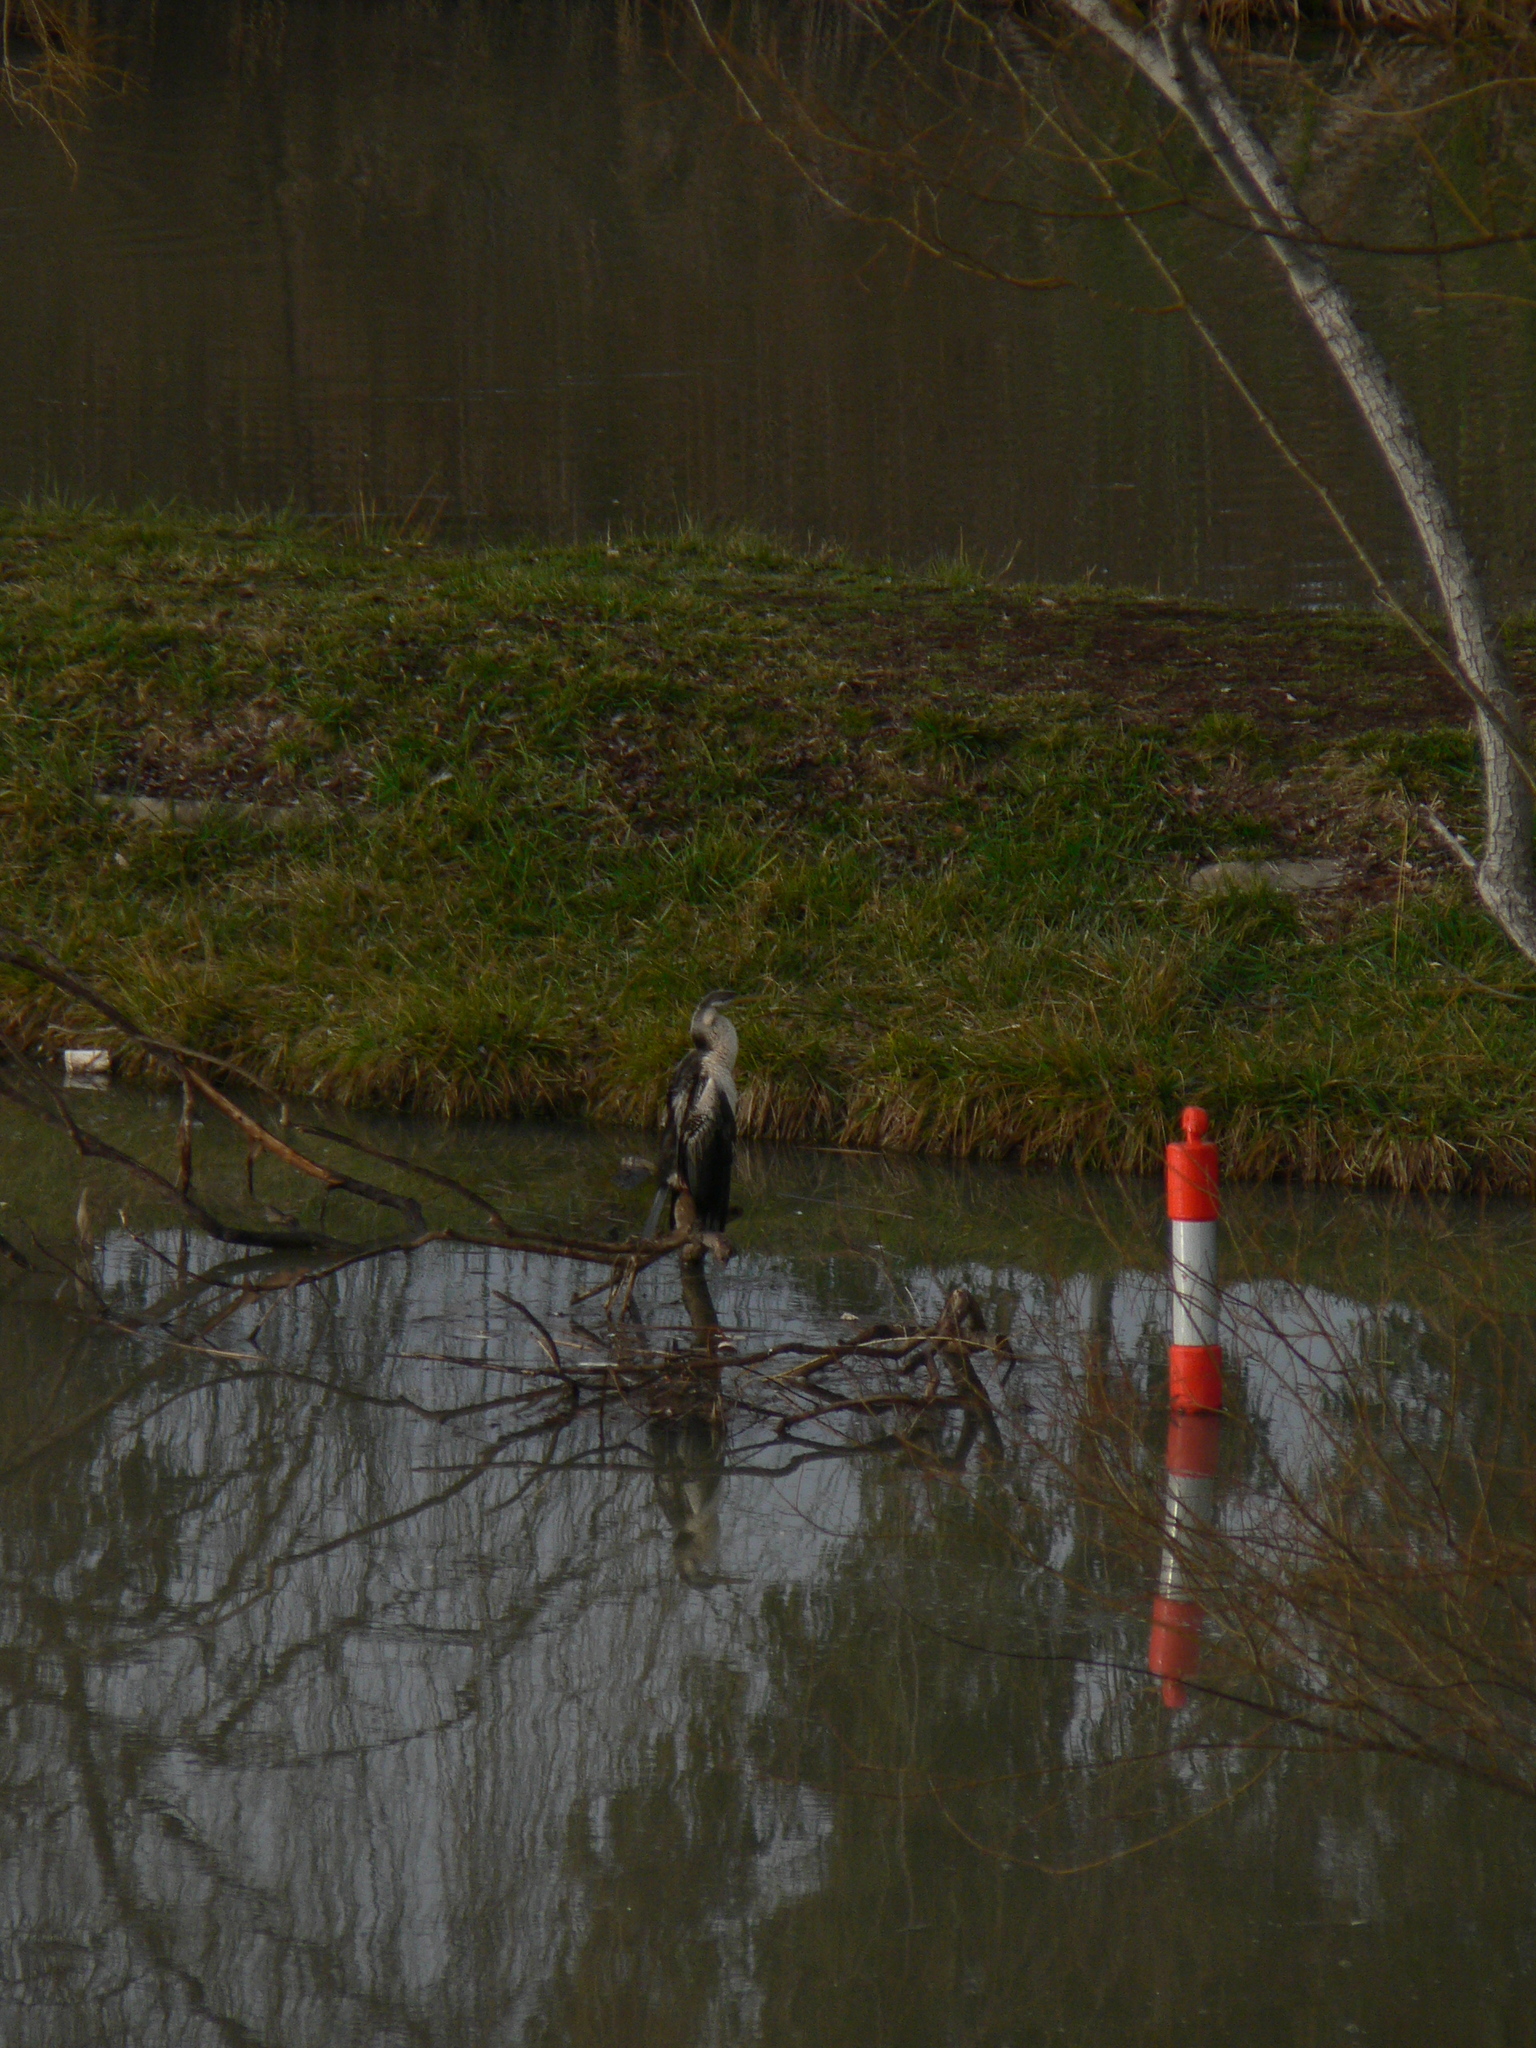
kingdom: Animalia
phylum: Chordata
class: Aves
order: Suliformes
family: Anhingidae
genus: Anhinga
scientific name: Anhinga novaehollandiae
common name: Australasian darter
